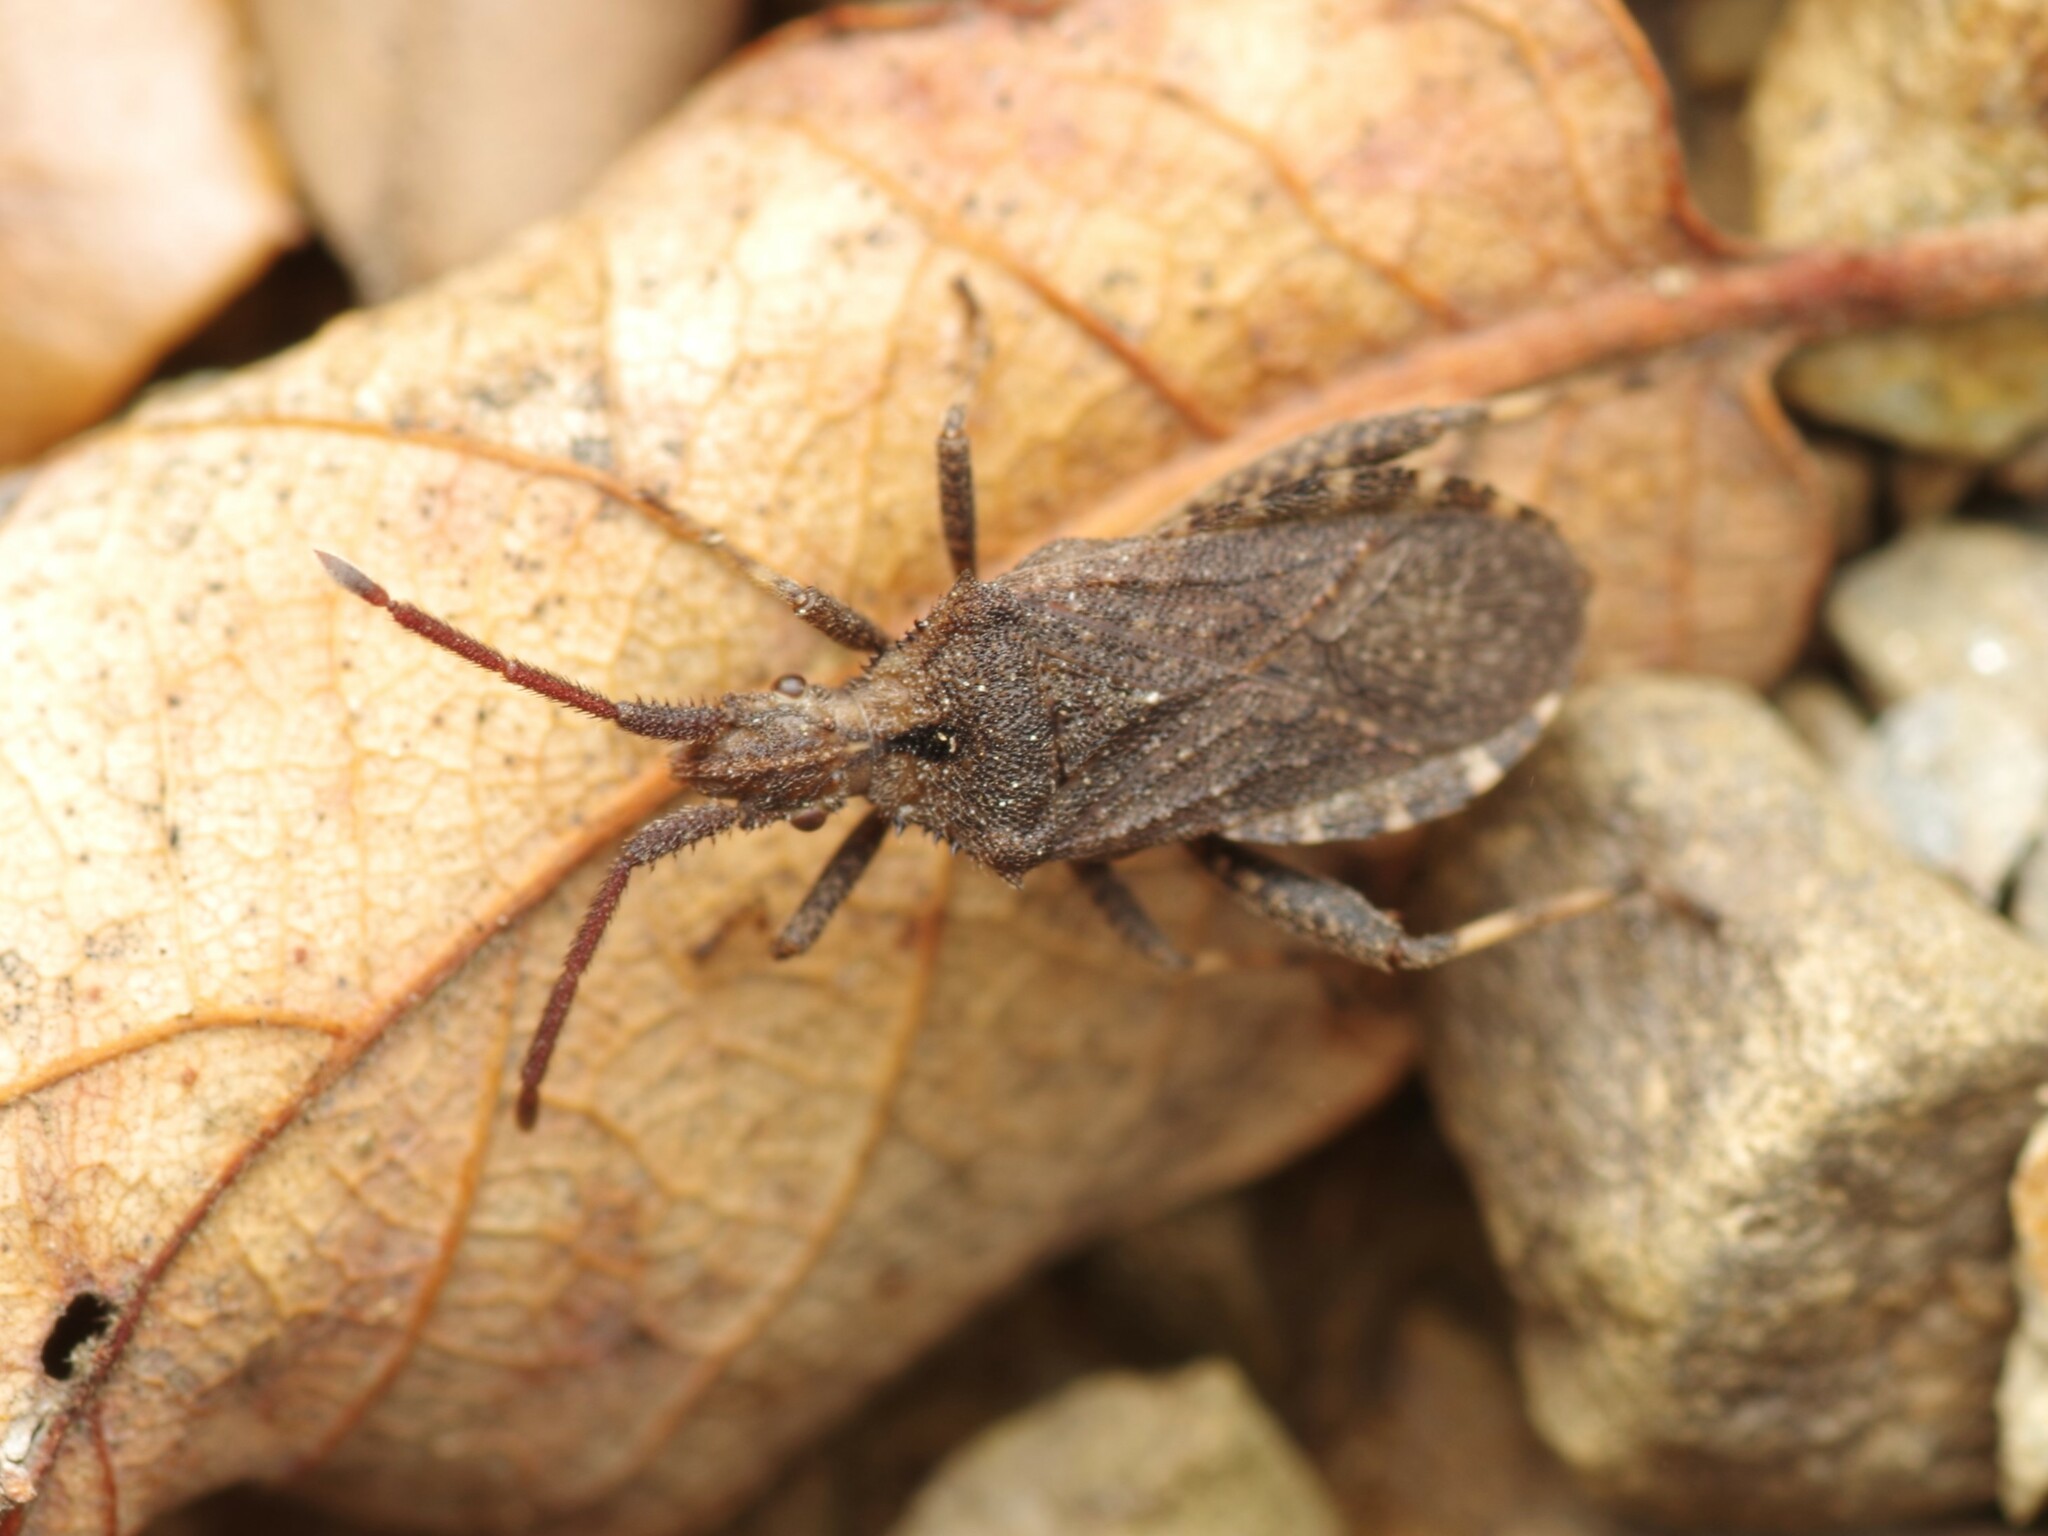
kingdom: Animalia
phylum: Arthropoda
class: Insecta
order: Hemiptera
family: Coreidae
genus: Bothrostethus
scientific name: Bothrostethus annulipes
